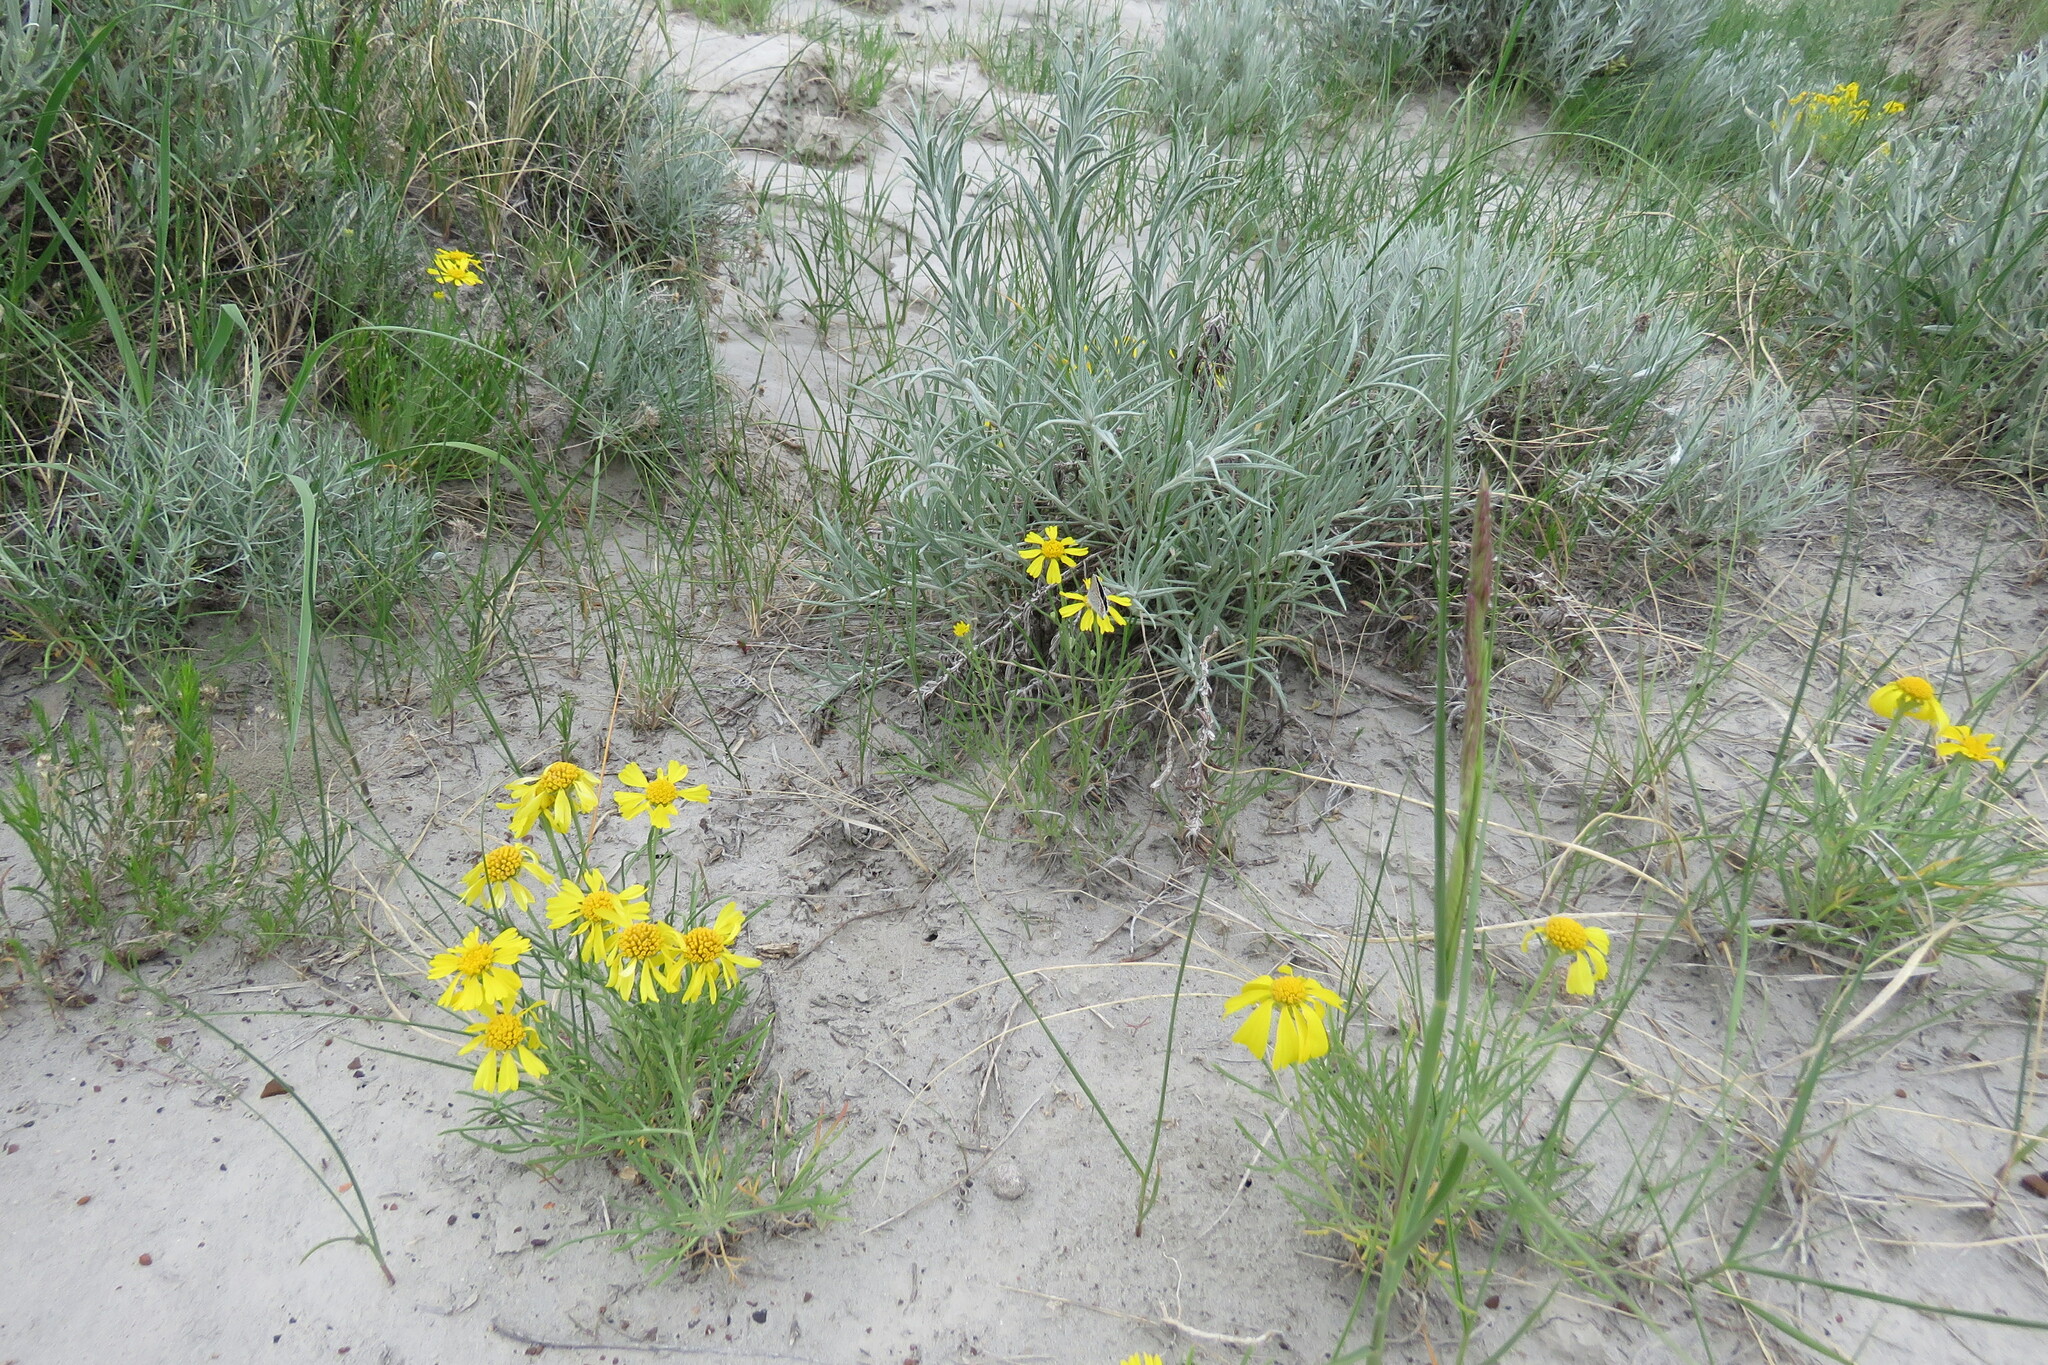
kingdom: Plantae
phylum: Tracheophyta
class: Magnoliopsida
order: Asterales
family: Asteraceae
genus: Hymenoxys
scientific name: Hymenoxys richardsonii
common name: Pingue rubberweed
